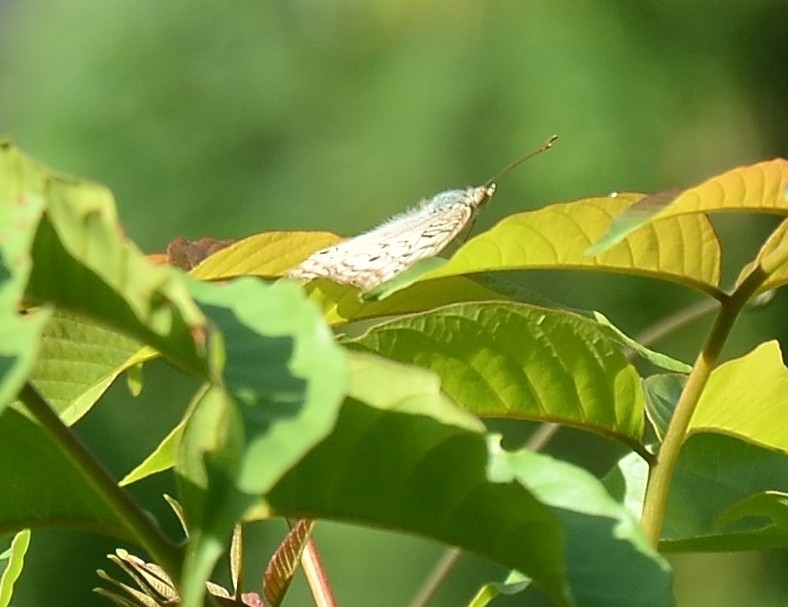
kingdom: Animalia
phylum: Arthropoda
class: Insecta
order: Lepidoptera
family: Nymphalidae
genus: Junonia
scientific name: Junonia atlites
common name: Grey pansy
